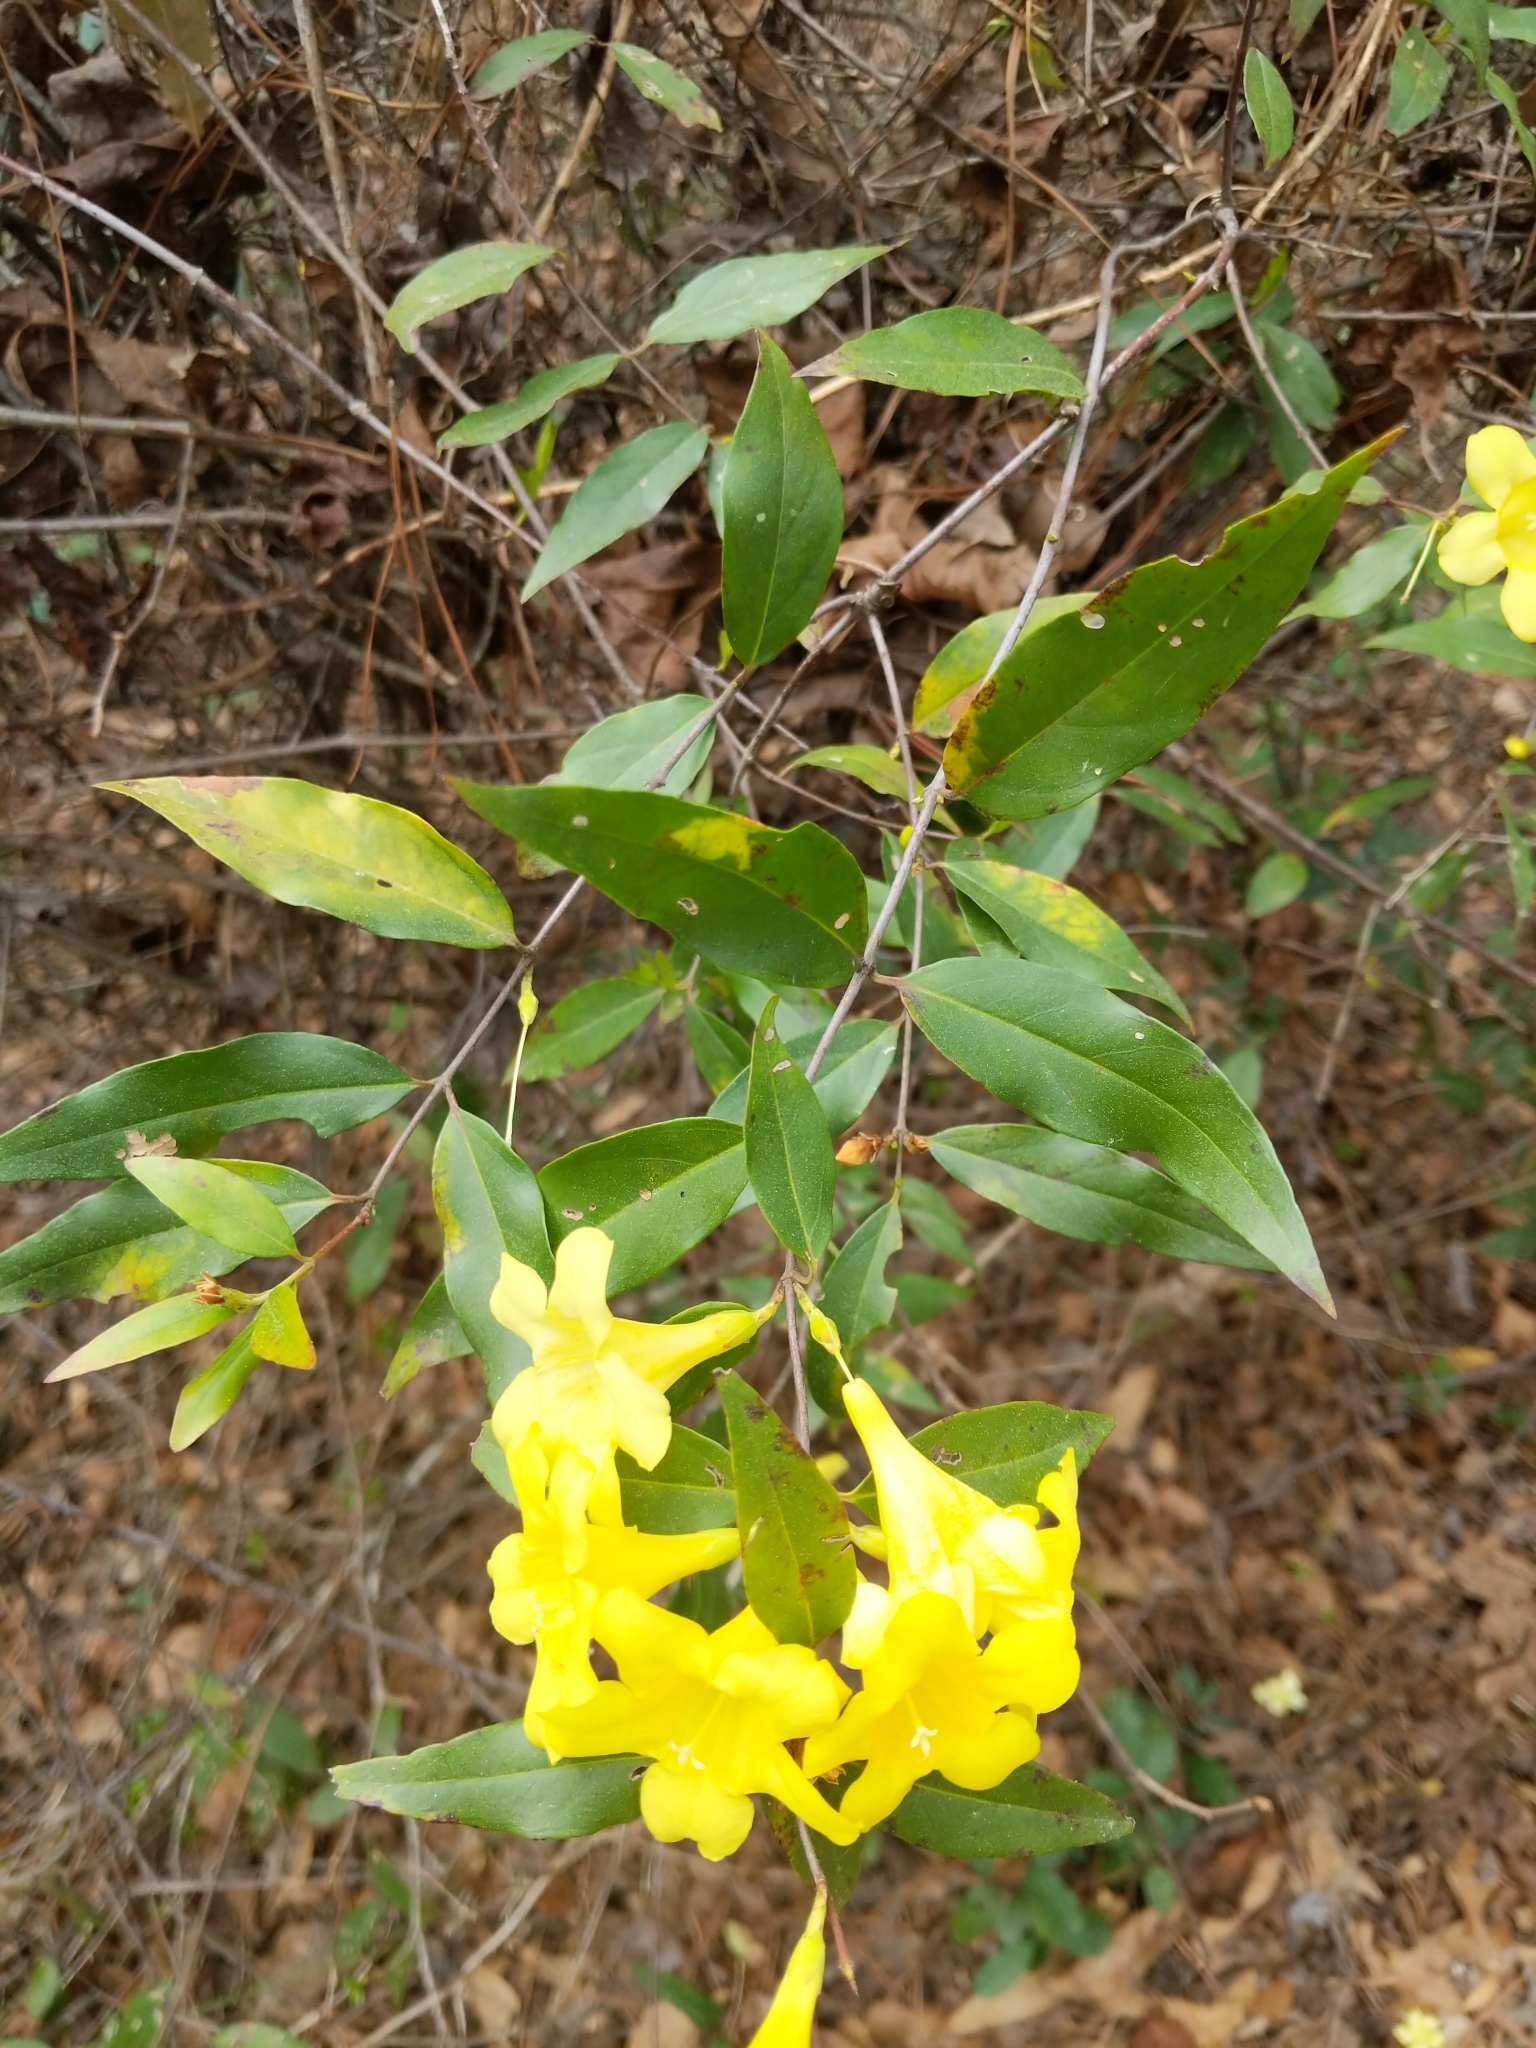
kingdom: Plantae
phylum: Tracheophyta
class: Magnoliopsida
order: Gentianales
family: Gelsemiaceae
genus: Gelsemium
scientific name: Gelsemium sempervirens
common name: Carolina-jasmine
